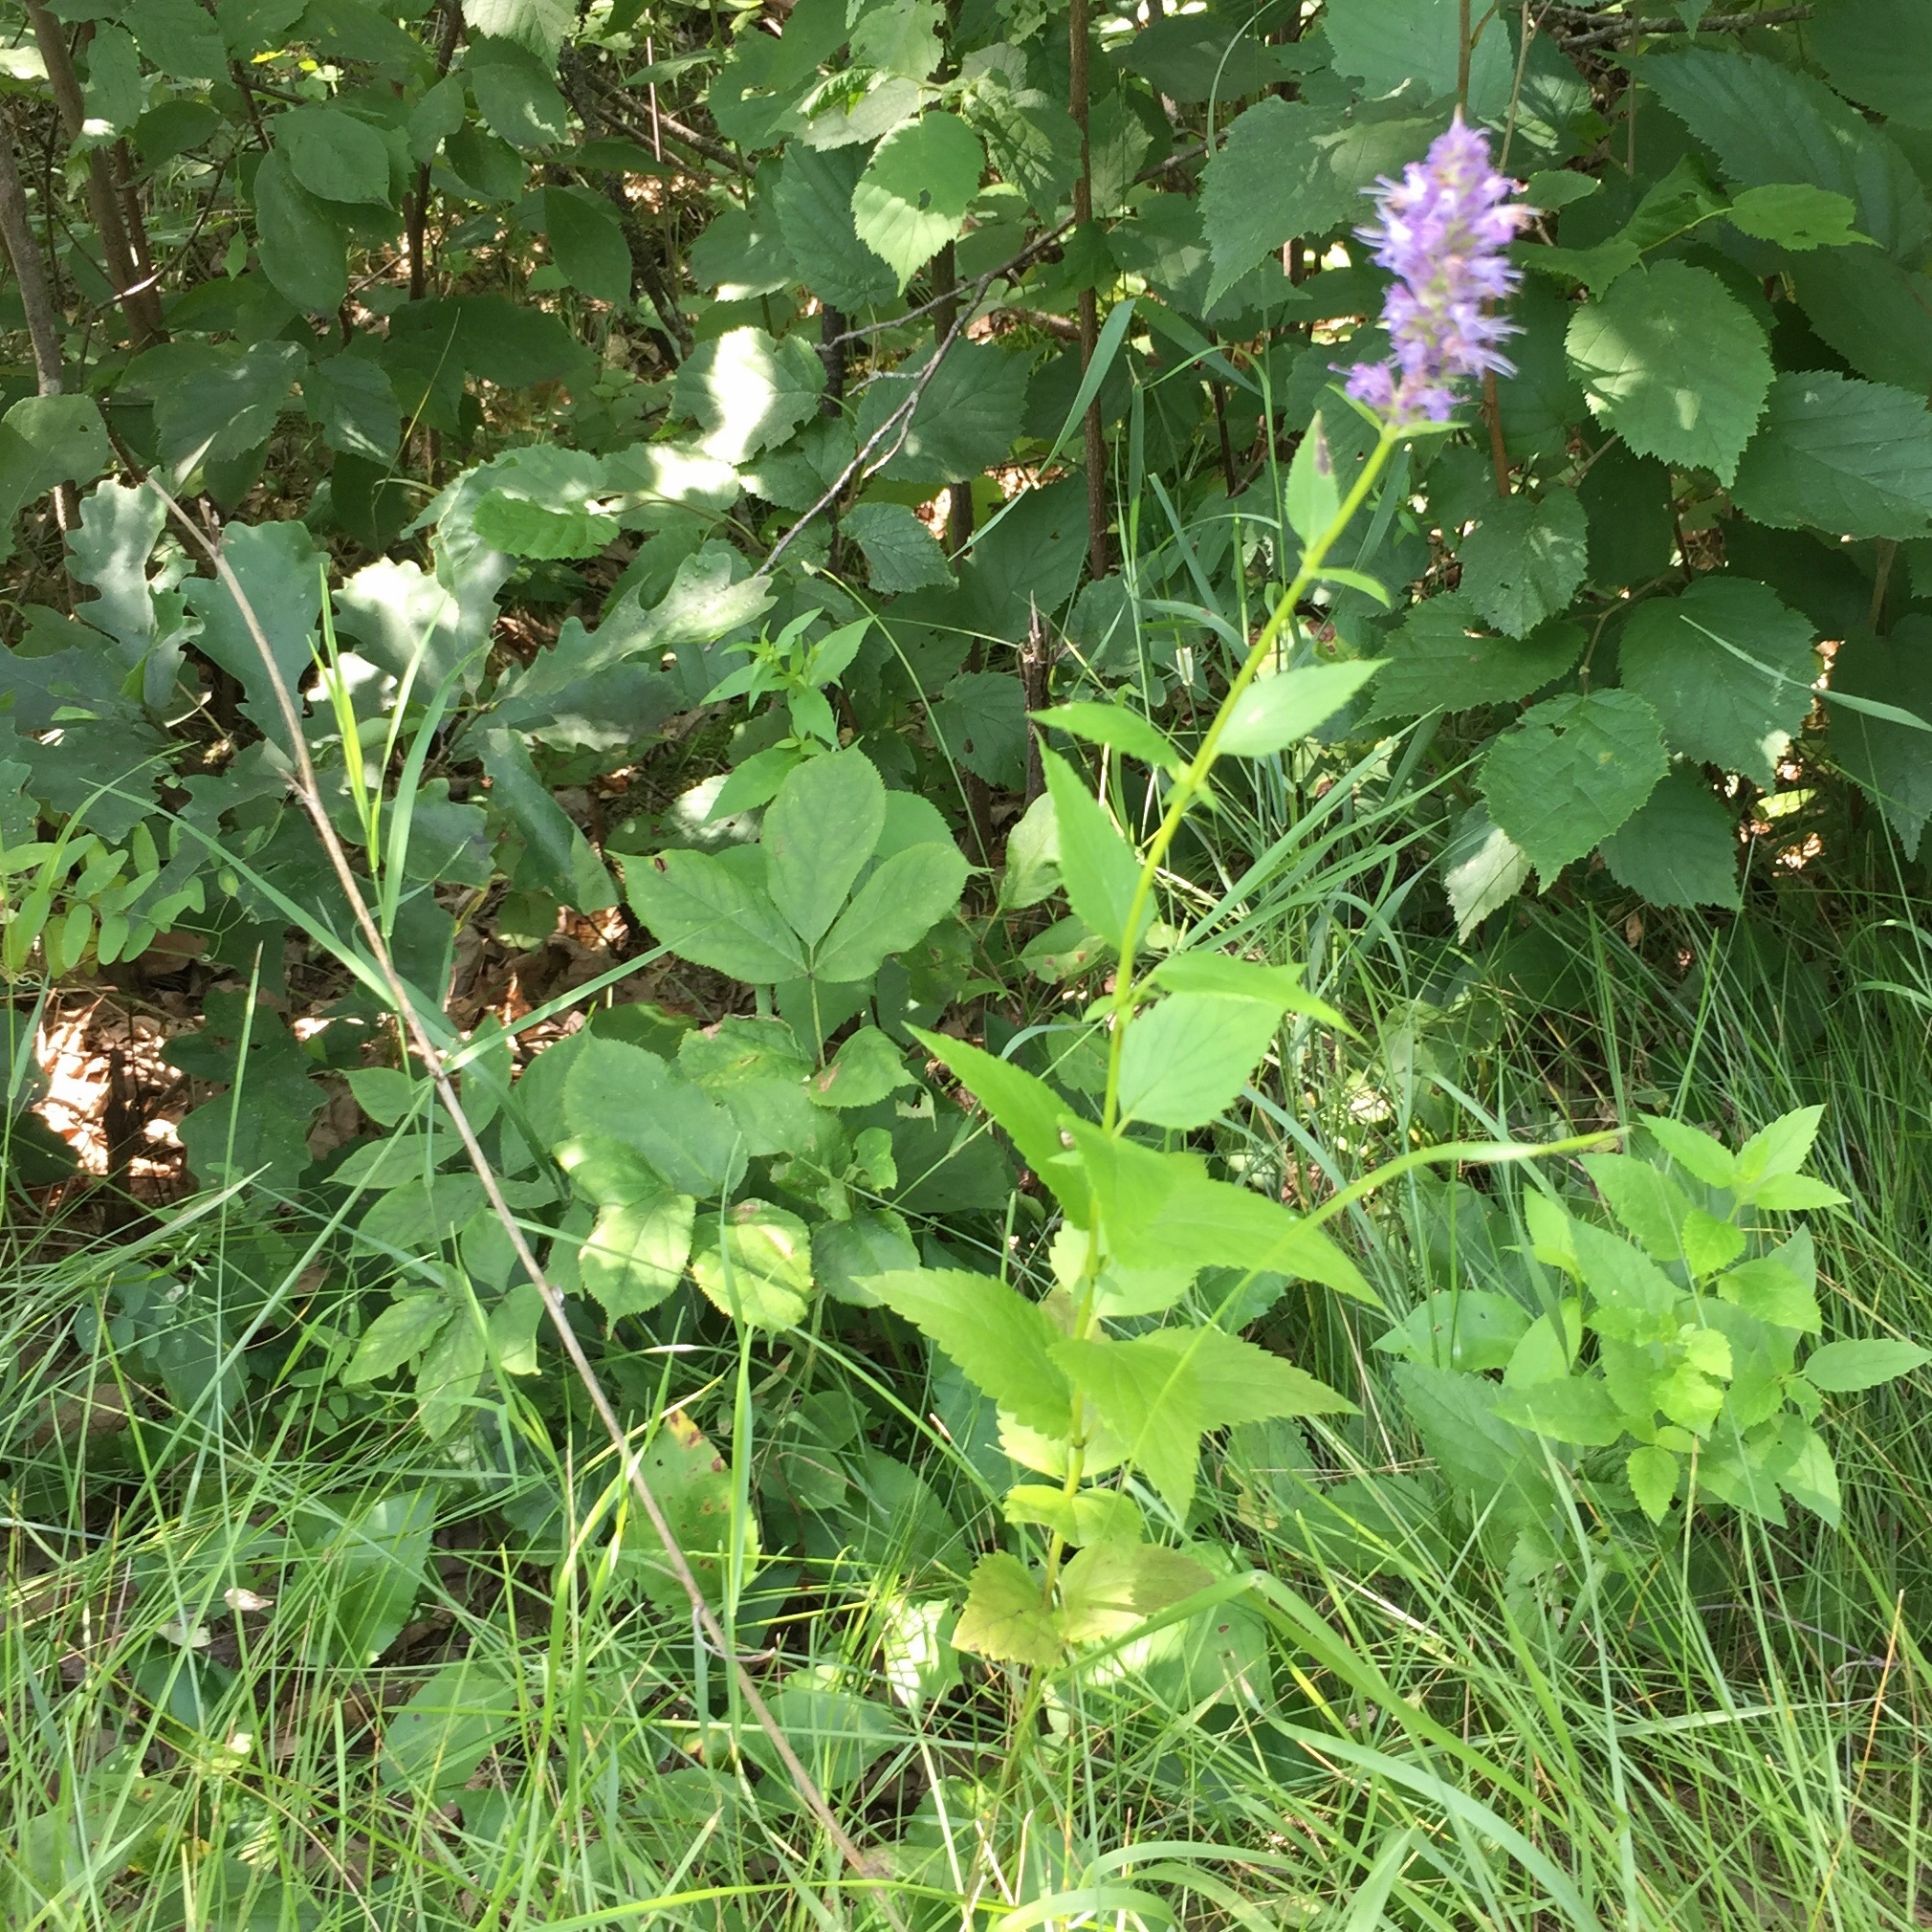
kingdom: Plantae
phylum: Tracheophyta
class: Magnoliopsida
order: Lamiales
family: Lamiaceae
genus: Agastache
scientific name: Agastache foeniculum
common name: Anise hyssop
